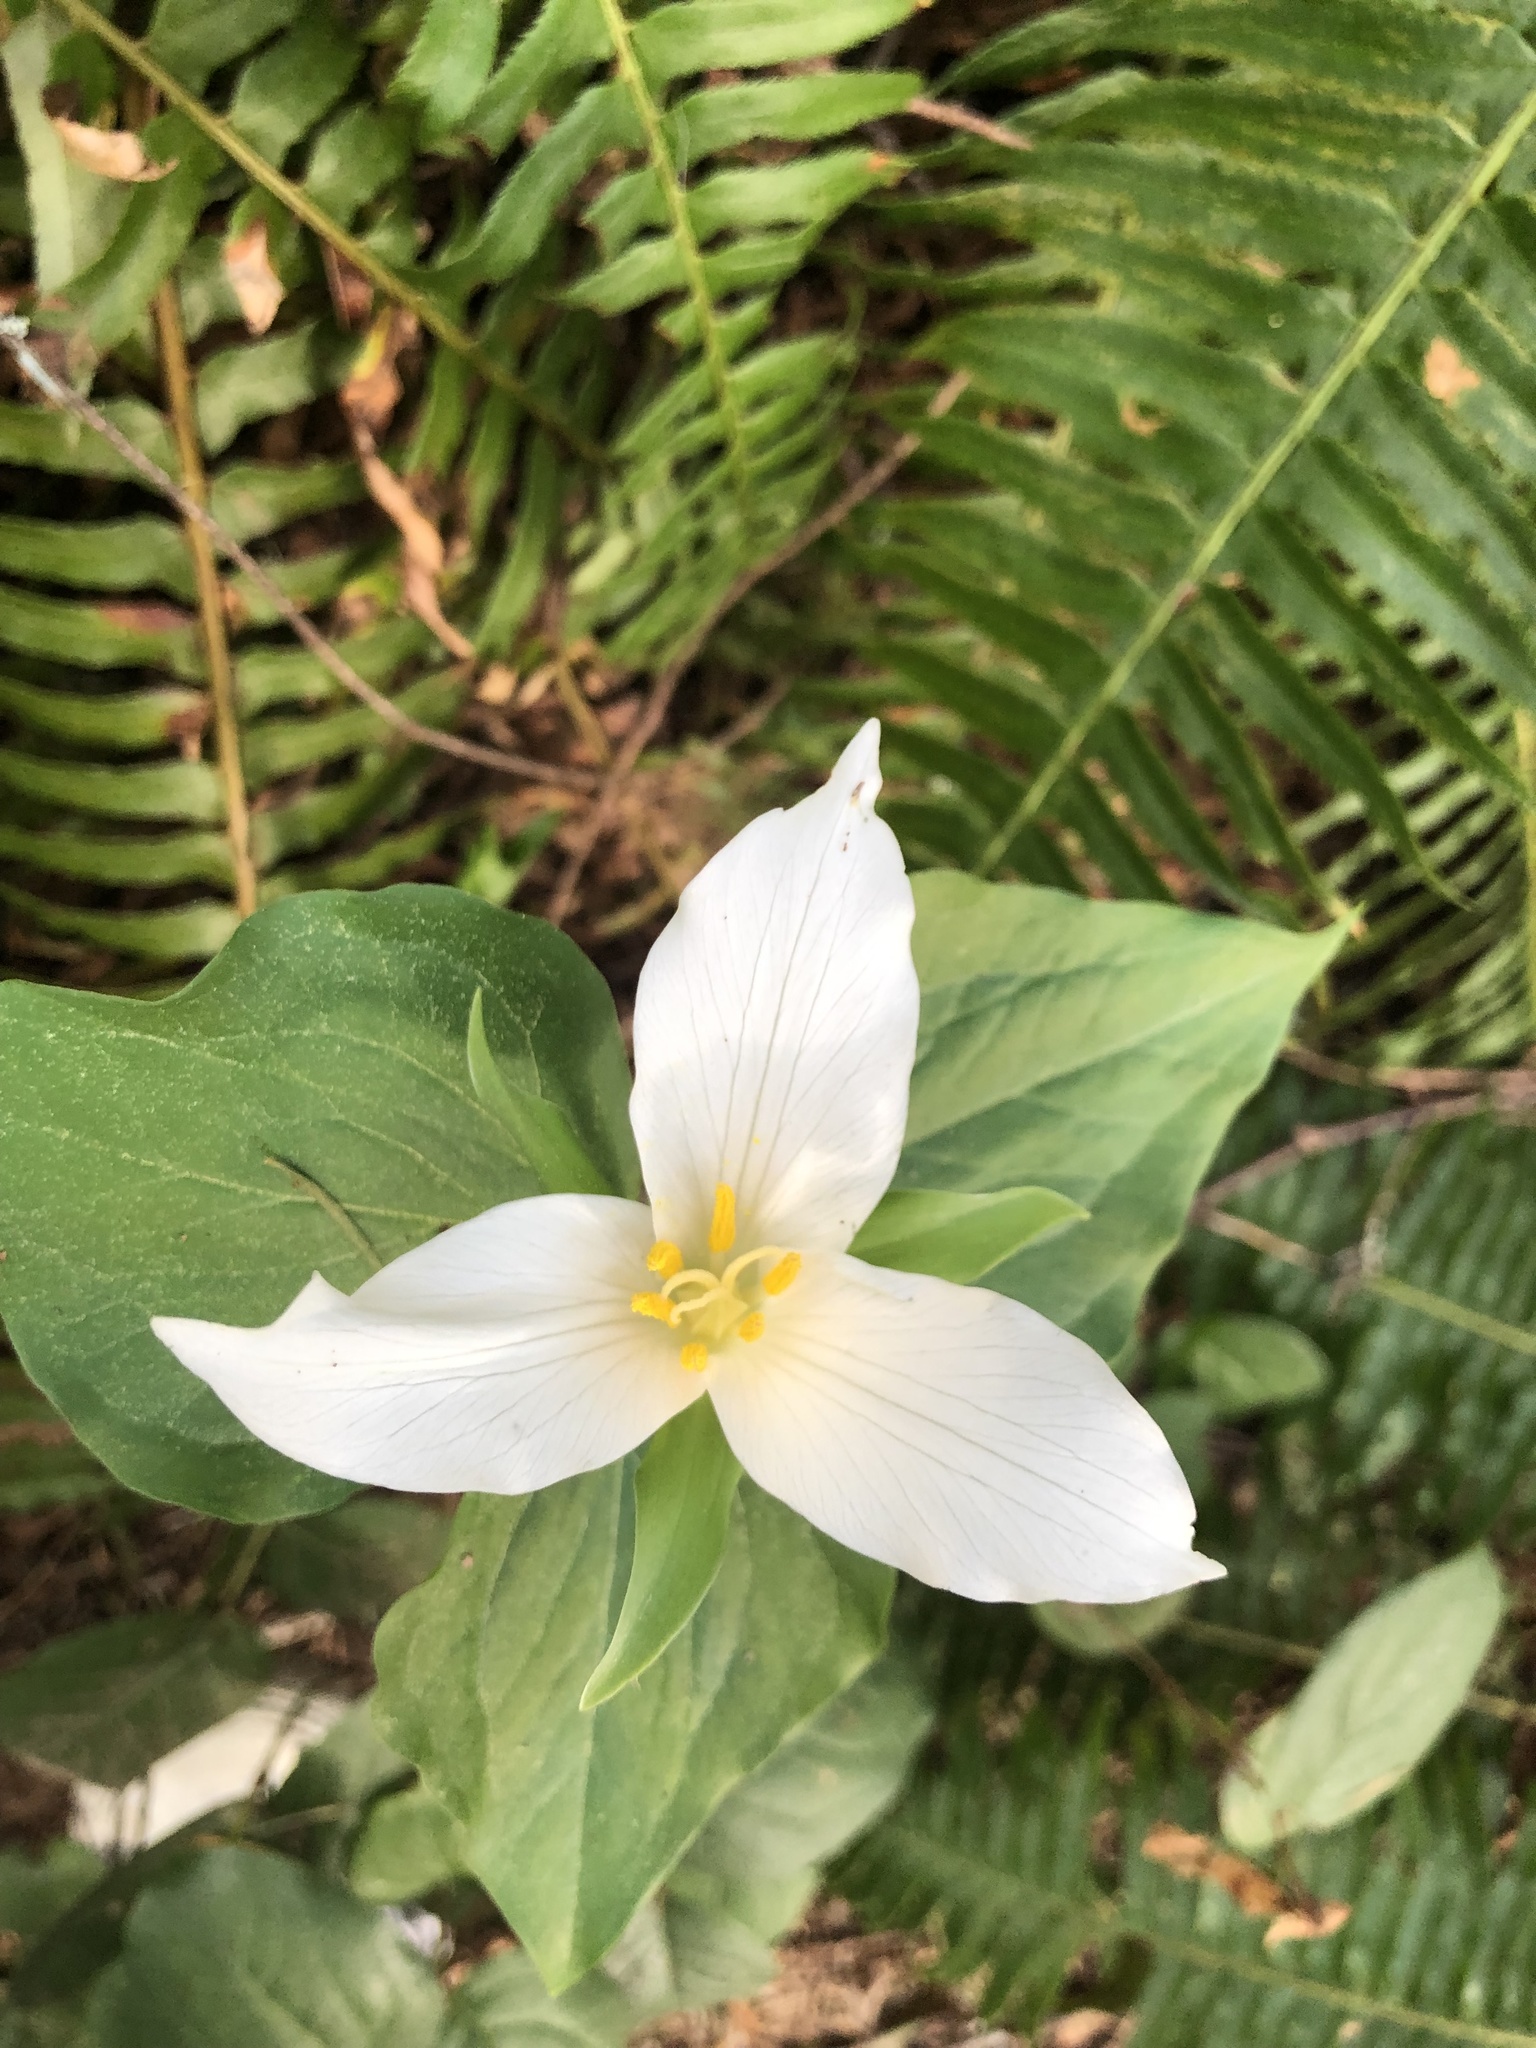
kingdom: Plantae
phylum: Tracheophyta
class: Liliopsida
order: Liliales
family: Melanthiaceae
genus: Trillium
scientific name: Trillium ovatum
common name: Pacific trillium
